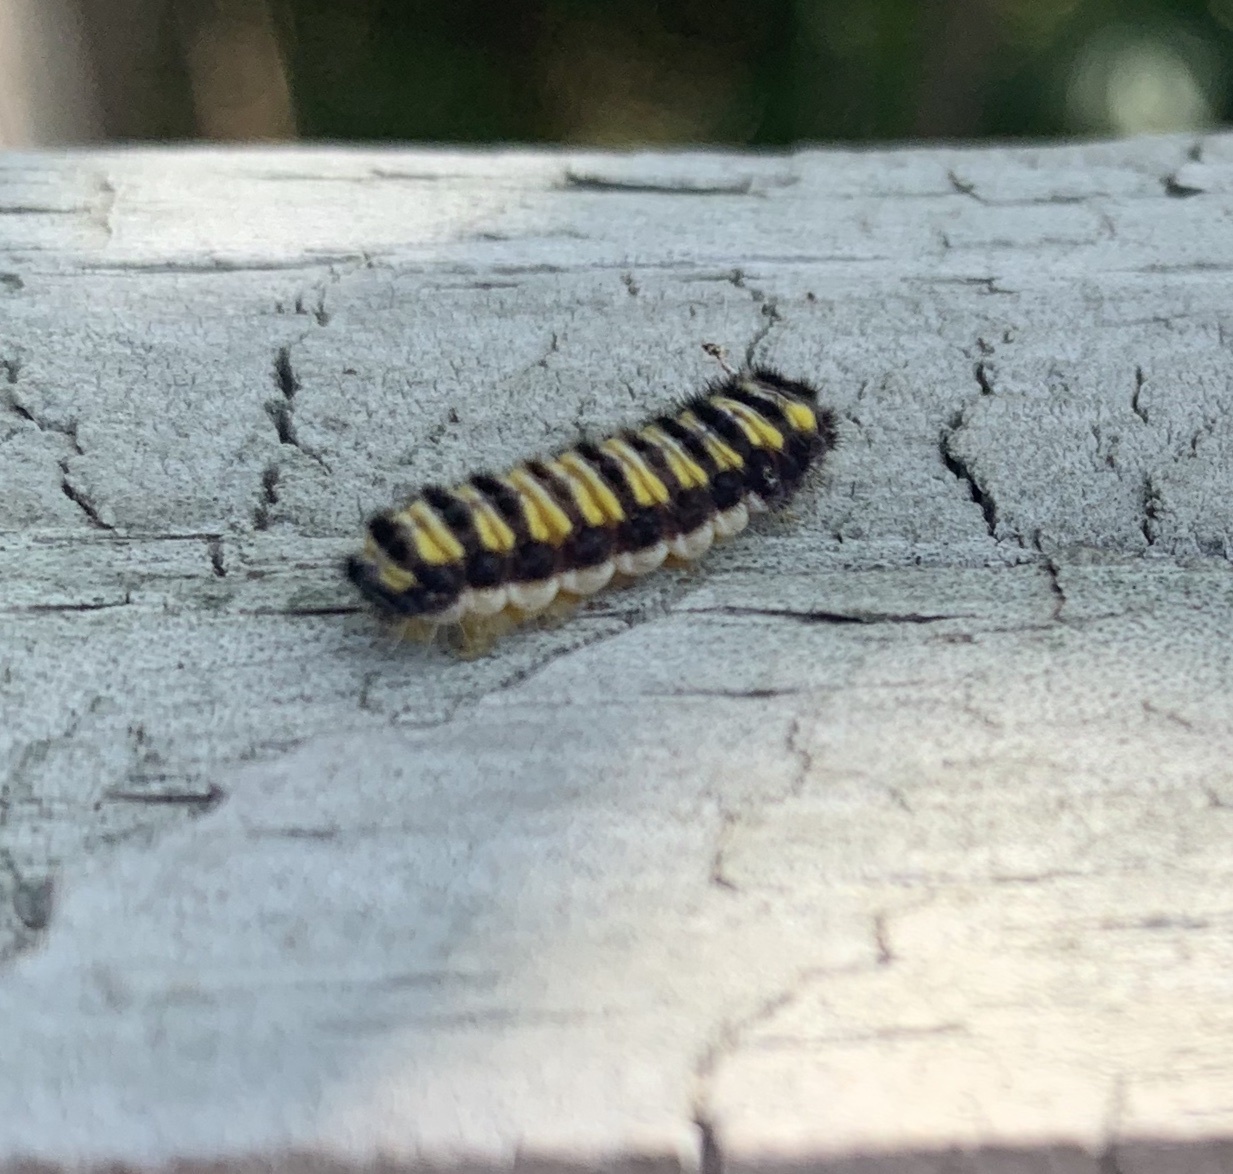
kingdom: Animalia
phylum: Arthropoda
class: Insecta
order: Lepidoptera
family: Zygaenidae
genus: Harrisina
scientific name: Harrisina americana
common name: Grapeleaf skeletonizer moth
